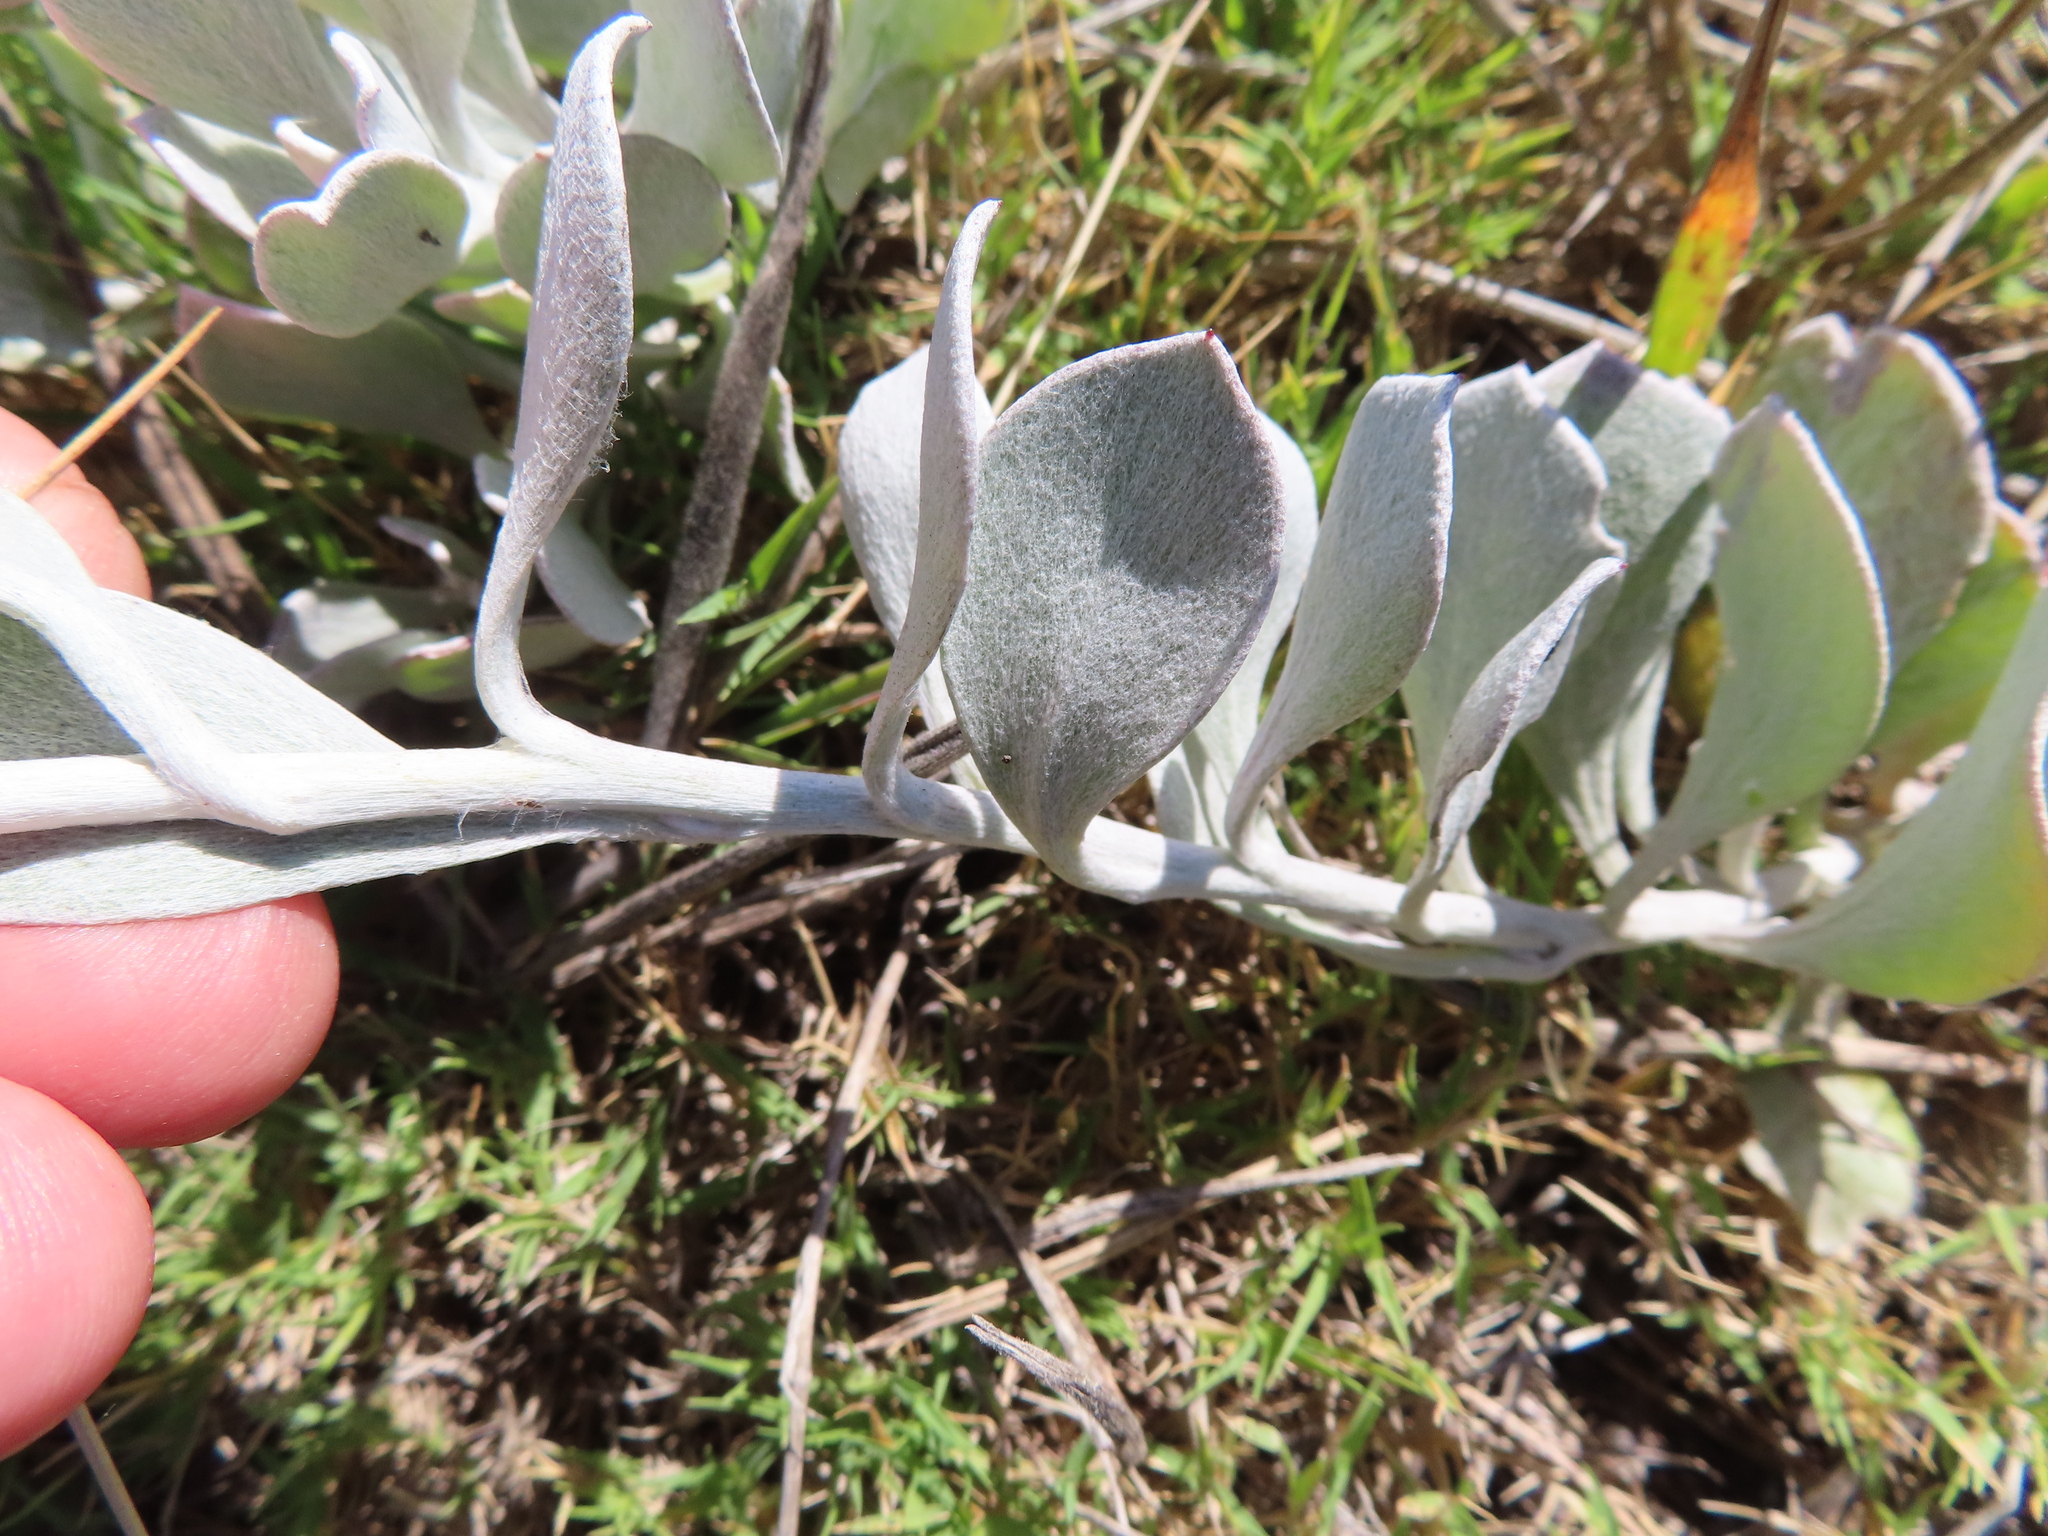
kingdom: Plantae
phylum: Tracheophyta
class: Magnoliopsida
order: Asterales
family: Asteraceae
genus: Osteospermum
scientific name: Osteospermum incanum
